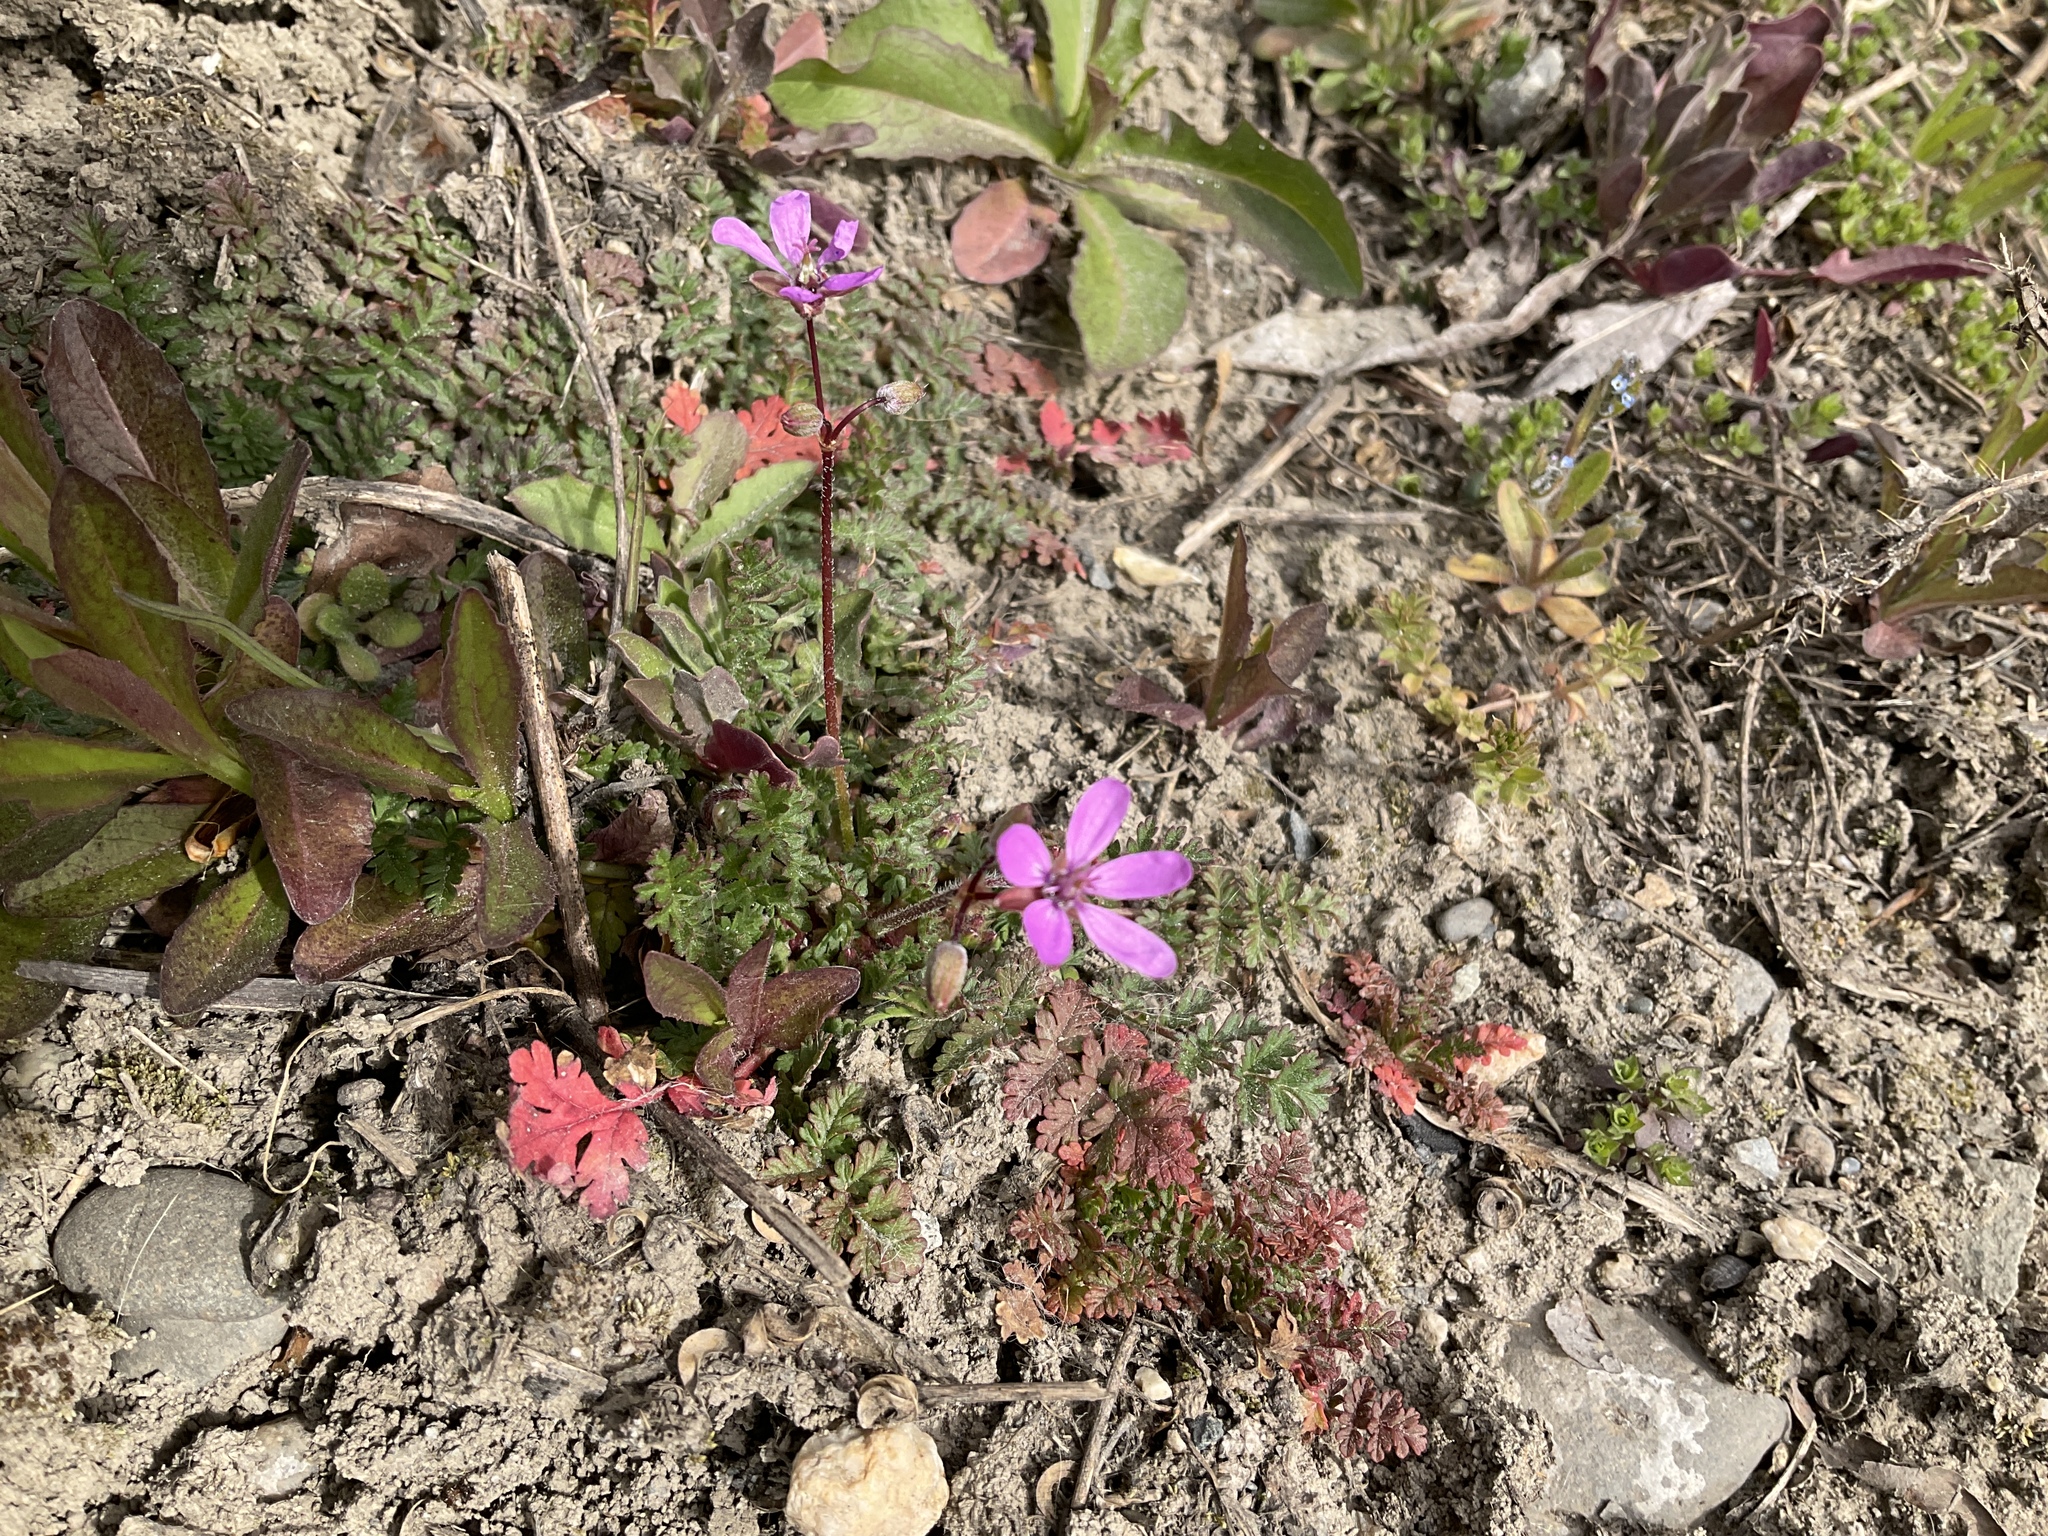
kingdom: Plantae
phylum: Tracheophyta
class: Magnoliopsida
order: Geraniales
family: Geraniaceae
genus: Erodium
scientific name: Erodium cicutarium
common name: Common stork's-bill
